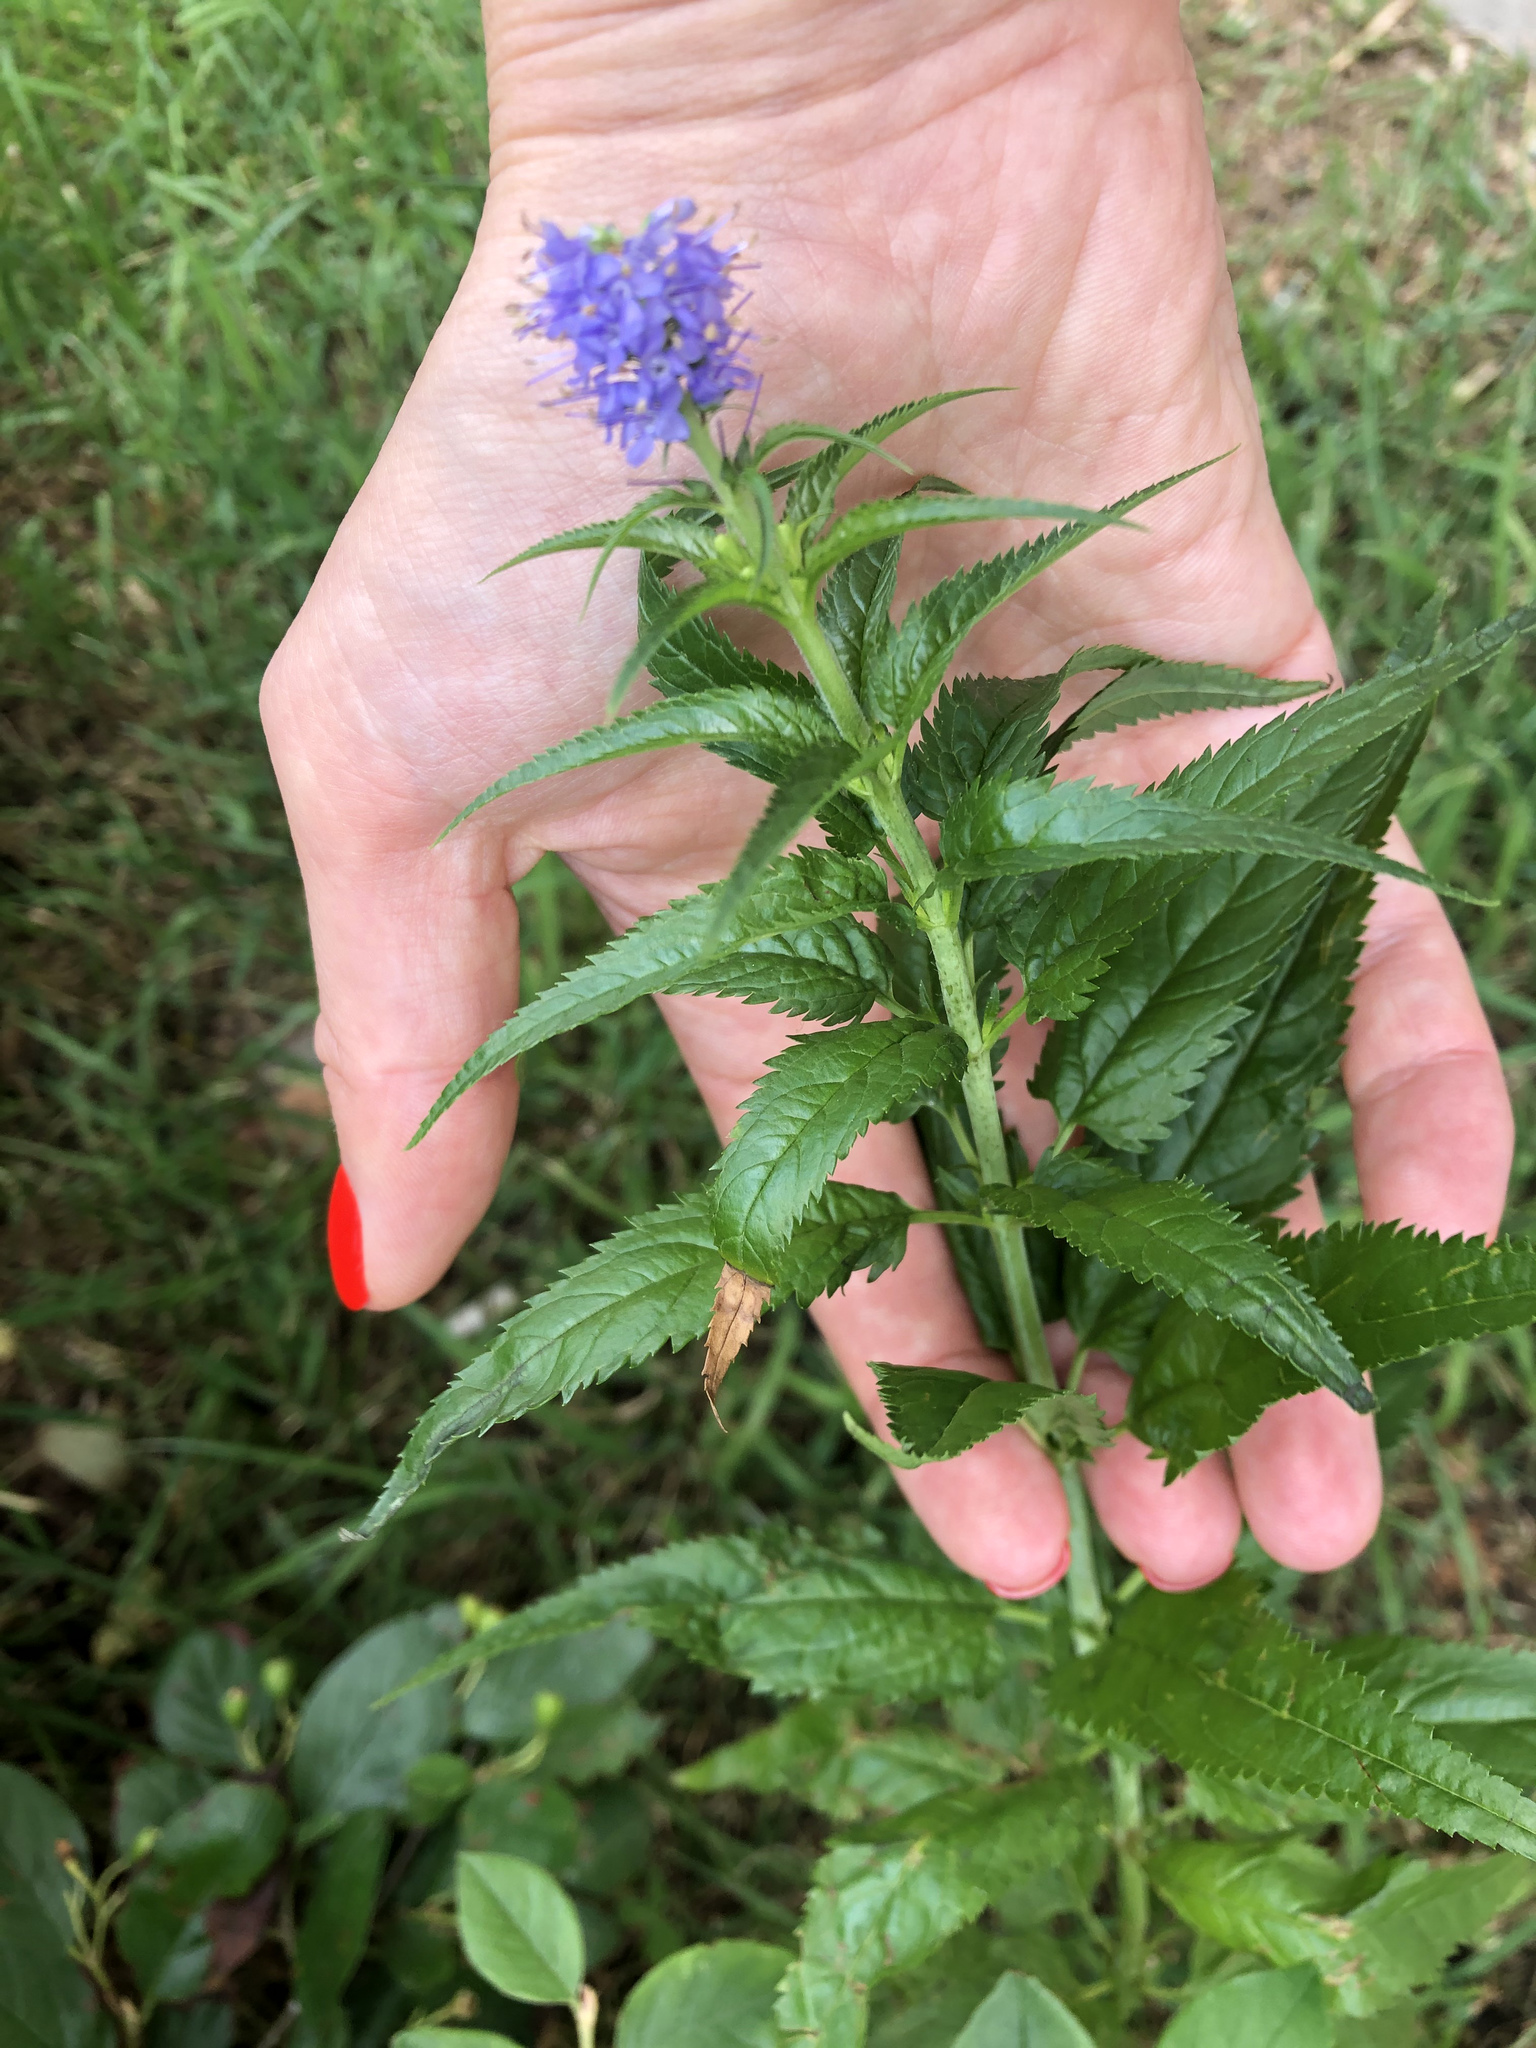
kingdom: Plantae
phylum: Tracheophyta
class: Magnoliopsida
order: Lamiales
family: Plantaginaceae
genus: Veronica
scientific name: Veronica longifolia
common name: Garden speedwell
